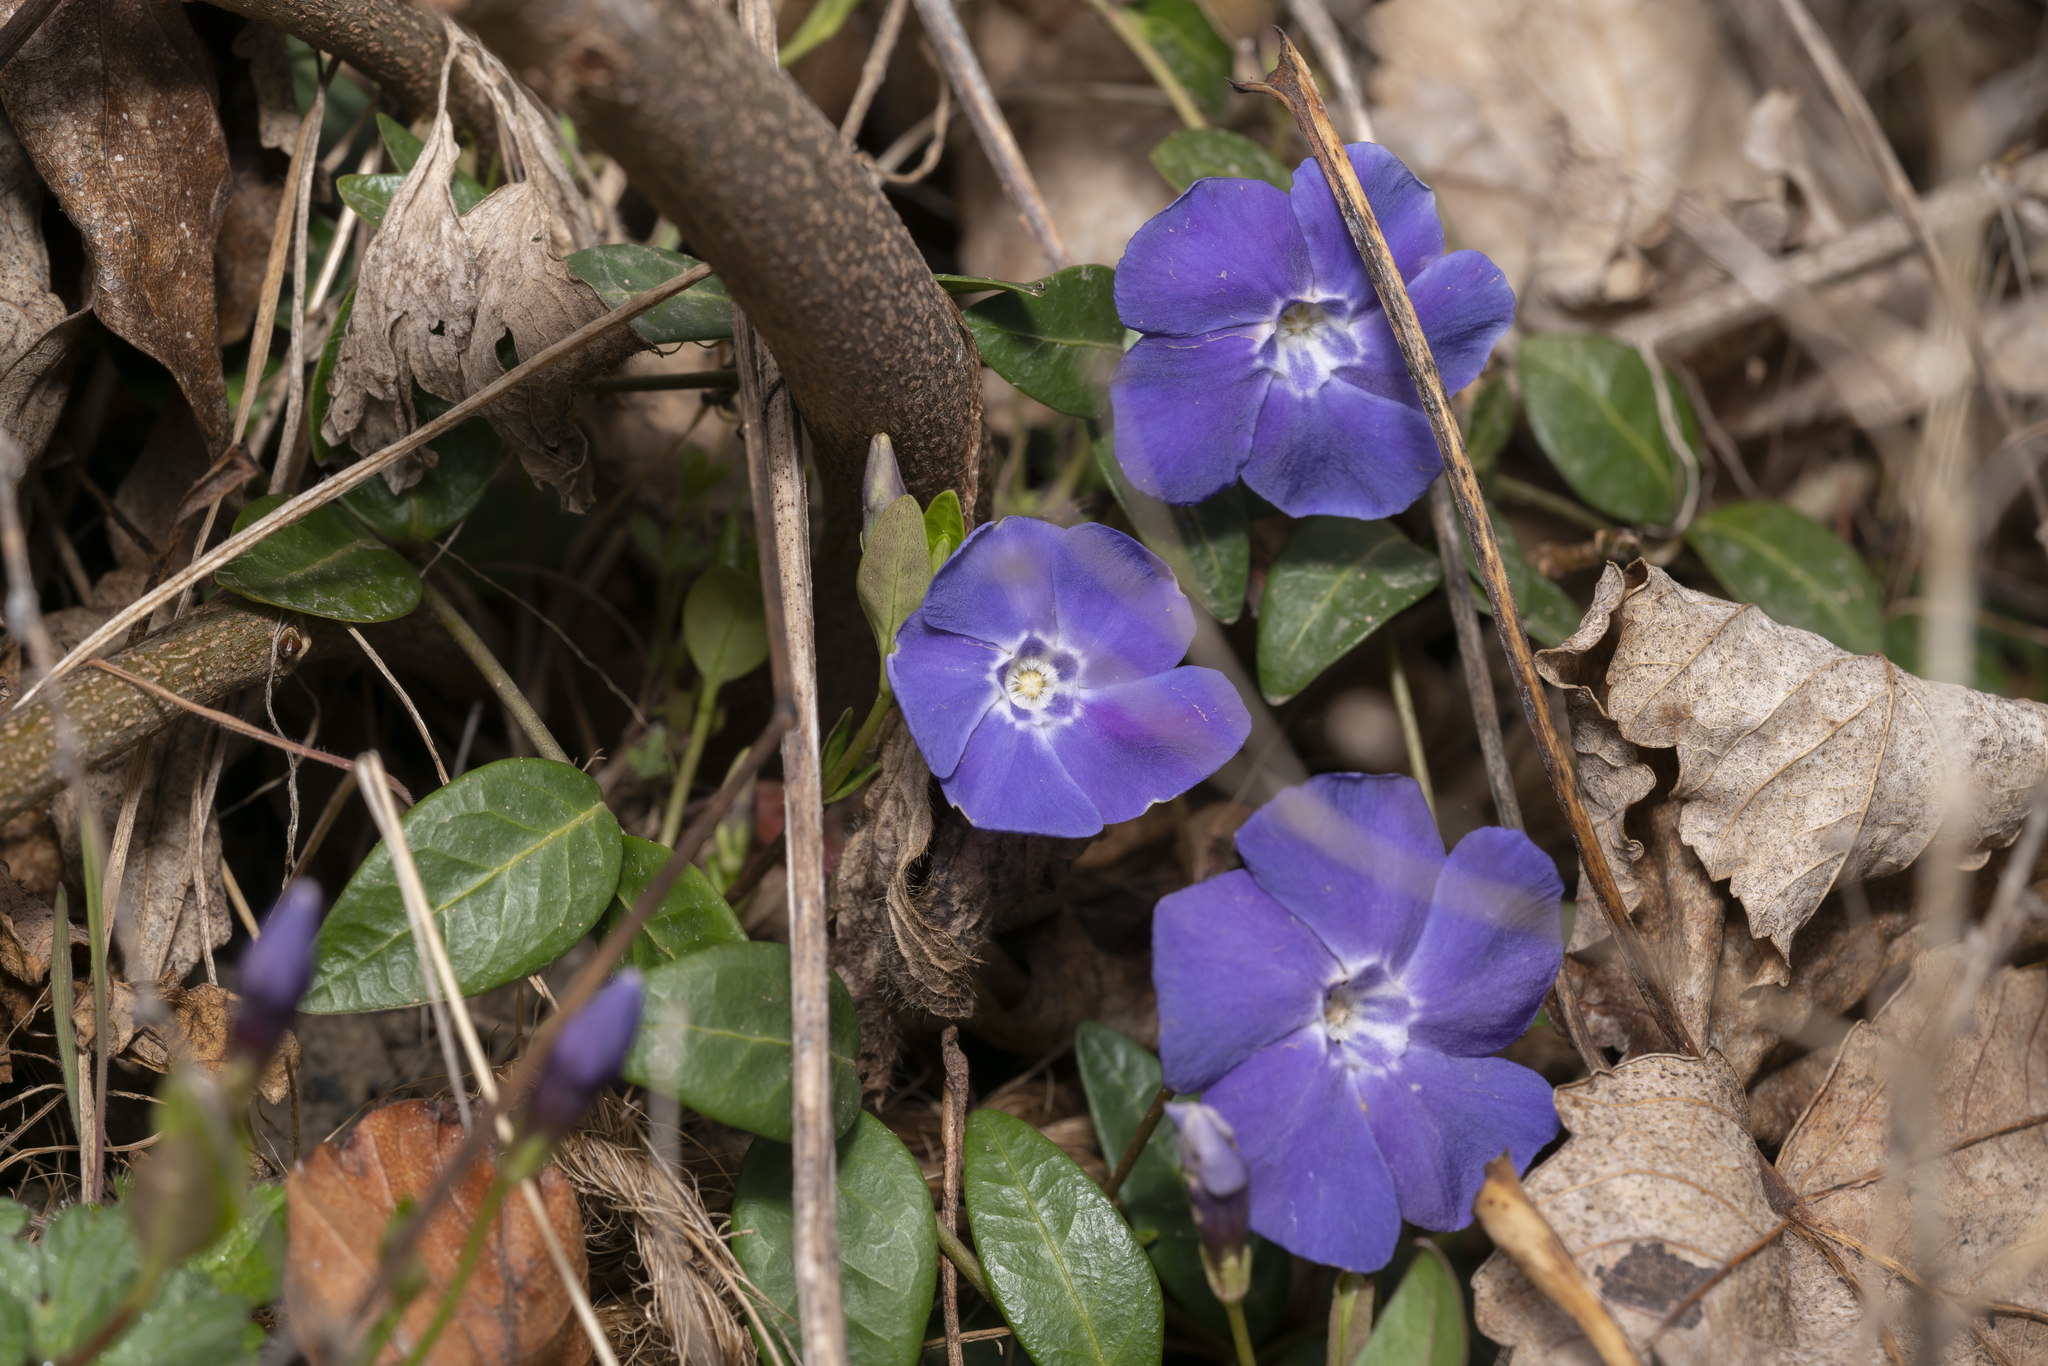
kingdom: Plantae
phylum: Tracheophyta
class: Magnoliopsida
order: Gentianales
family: Apocynaceae
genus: Vinca
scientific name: Vinca minor
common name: Lesser periwinkle
